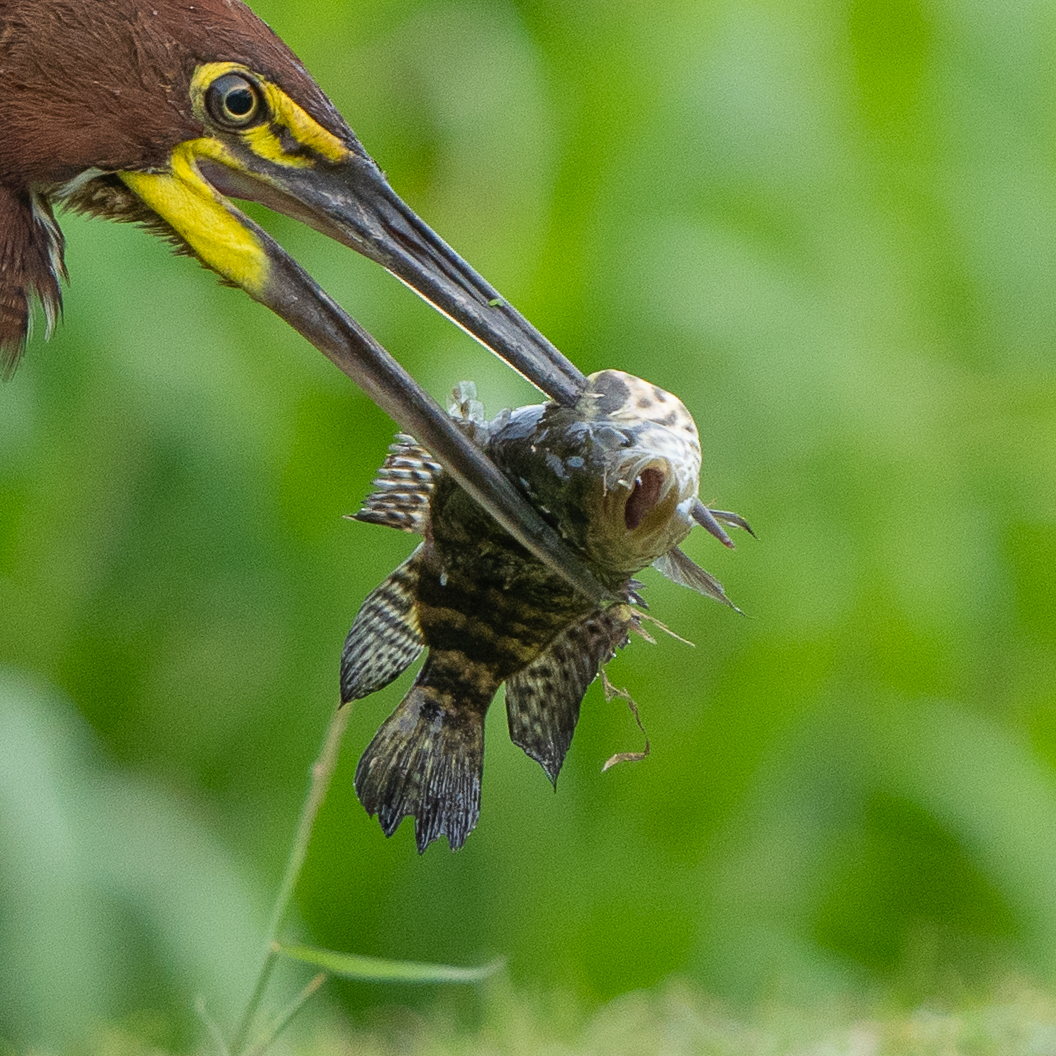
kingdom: Animalia
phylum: Chordata
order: Perciformes
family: Cichlidae
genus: Parachromis
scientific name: Parachromis managuensis
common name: Jaguar guapote
